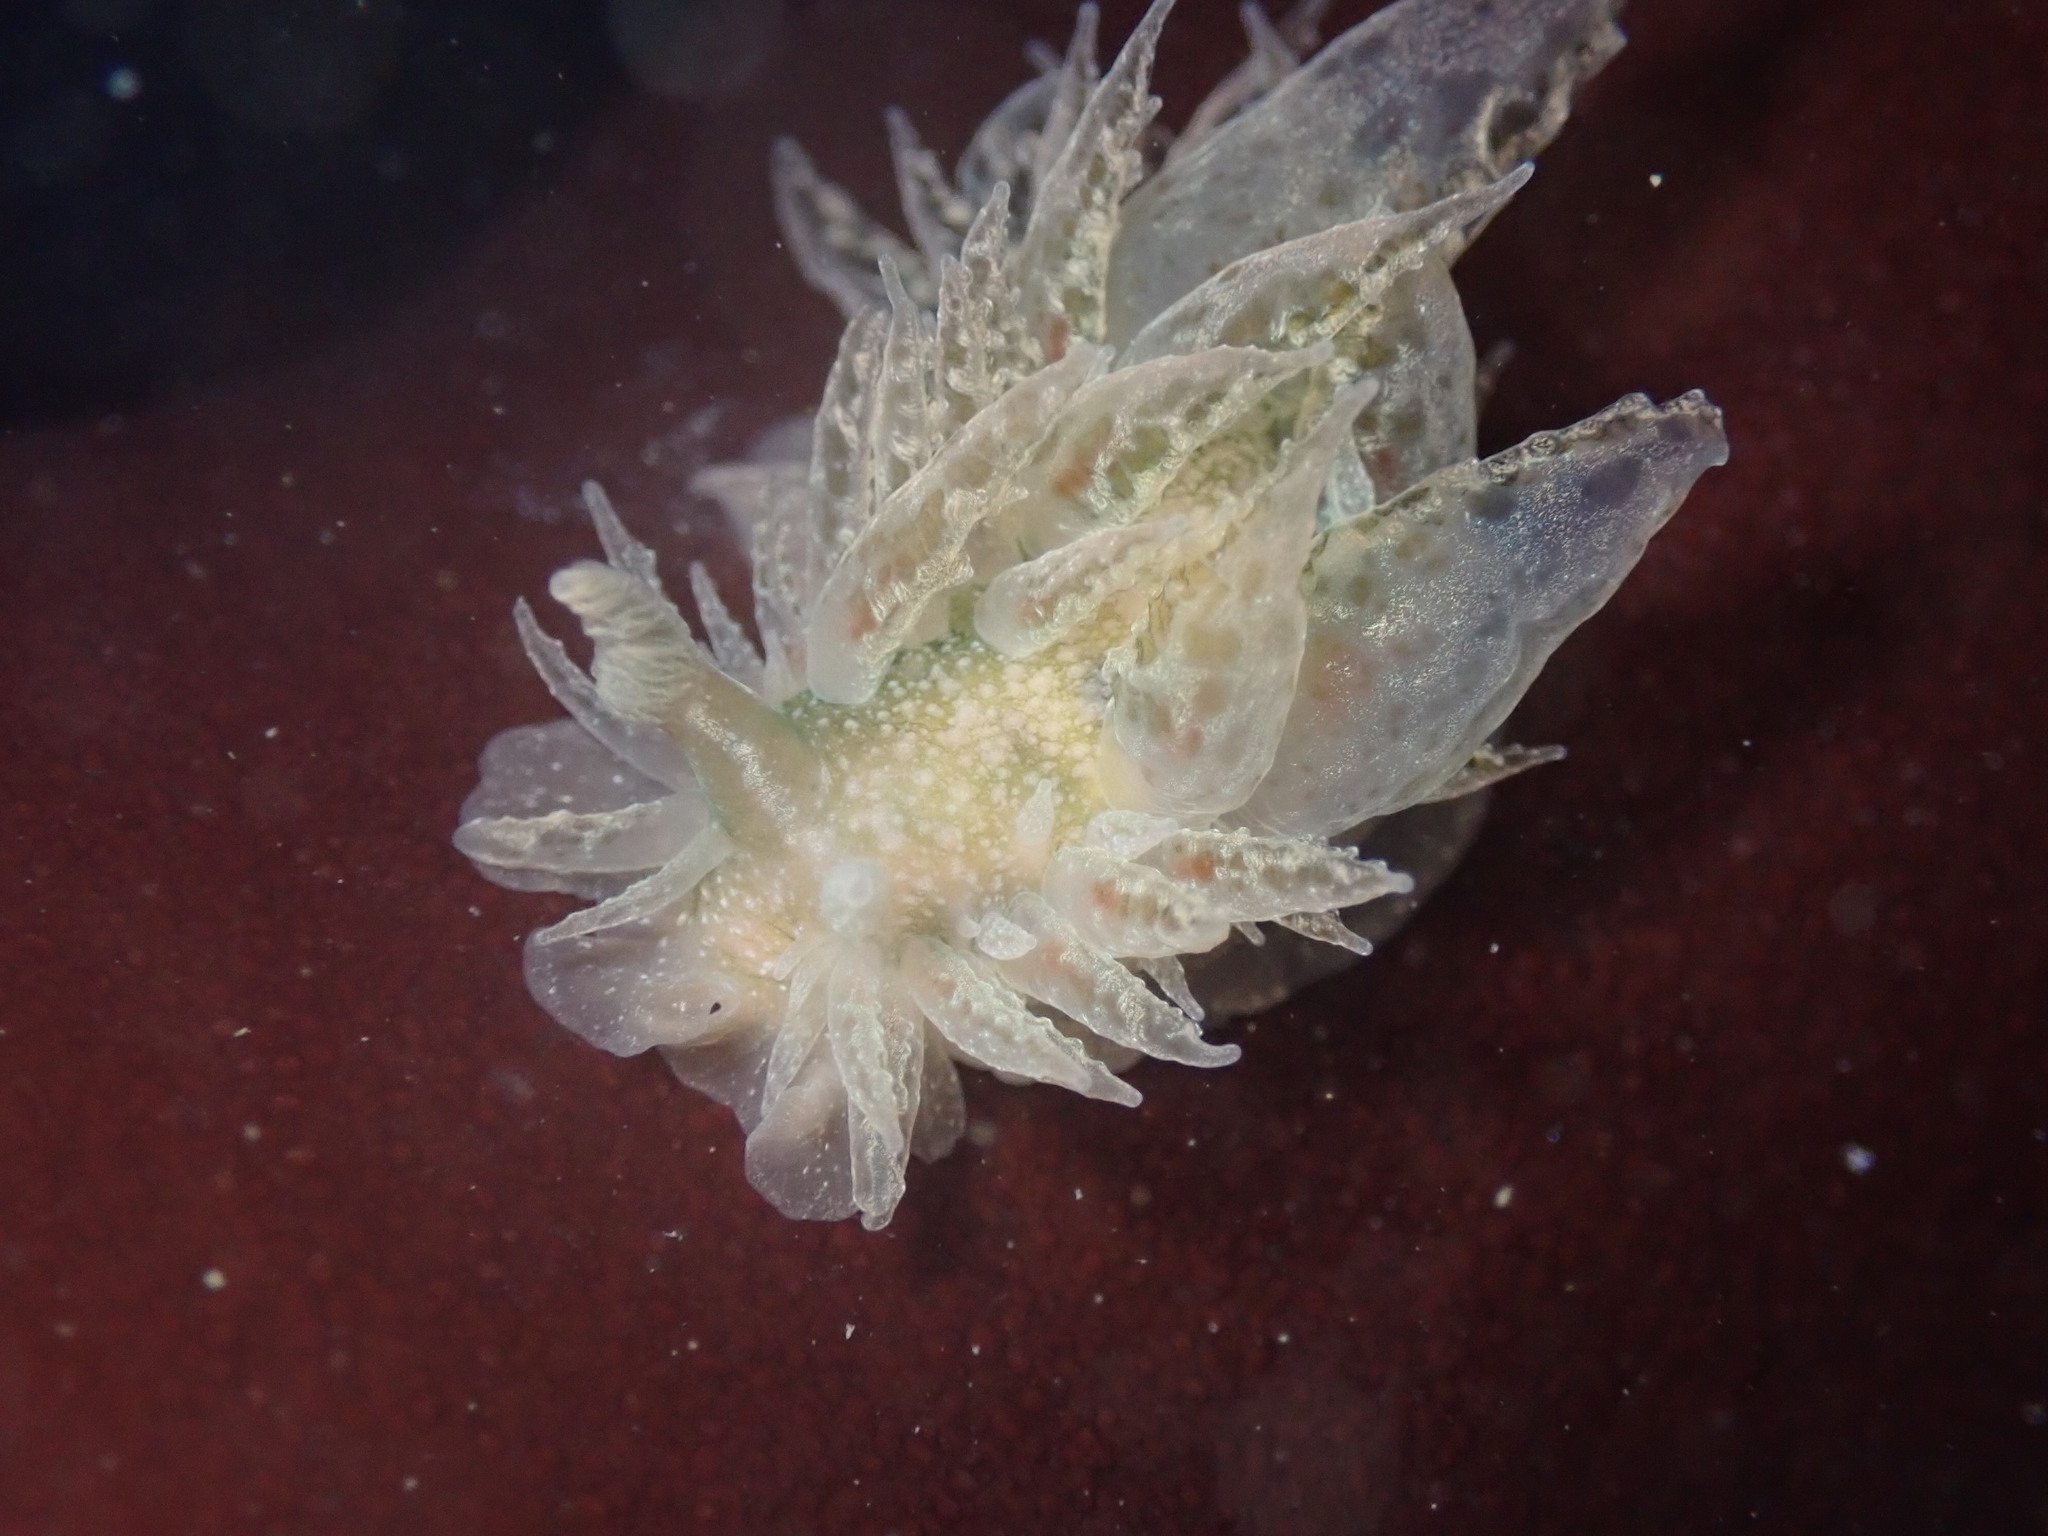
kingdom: Animalia
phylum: Mollusca
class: Gastropoda
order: Nudibranchia
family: Dironidae
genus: Dirona
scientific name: Dirona picta
